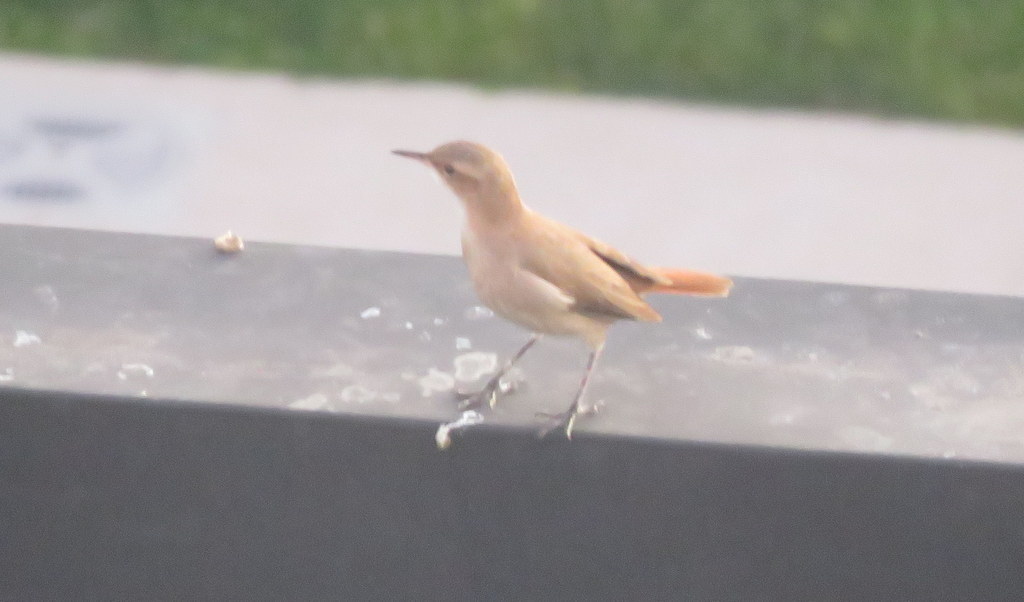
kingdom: Animalia
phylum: Chordata
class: Aves
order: Passeriformes
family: Furnariidae
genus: Furnarius
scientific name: Furnarius rufus
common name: Rufous hornero
